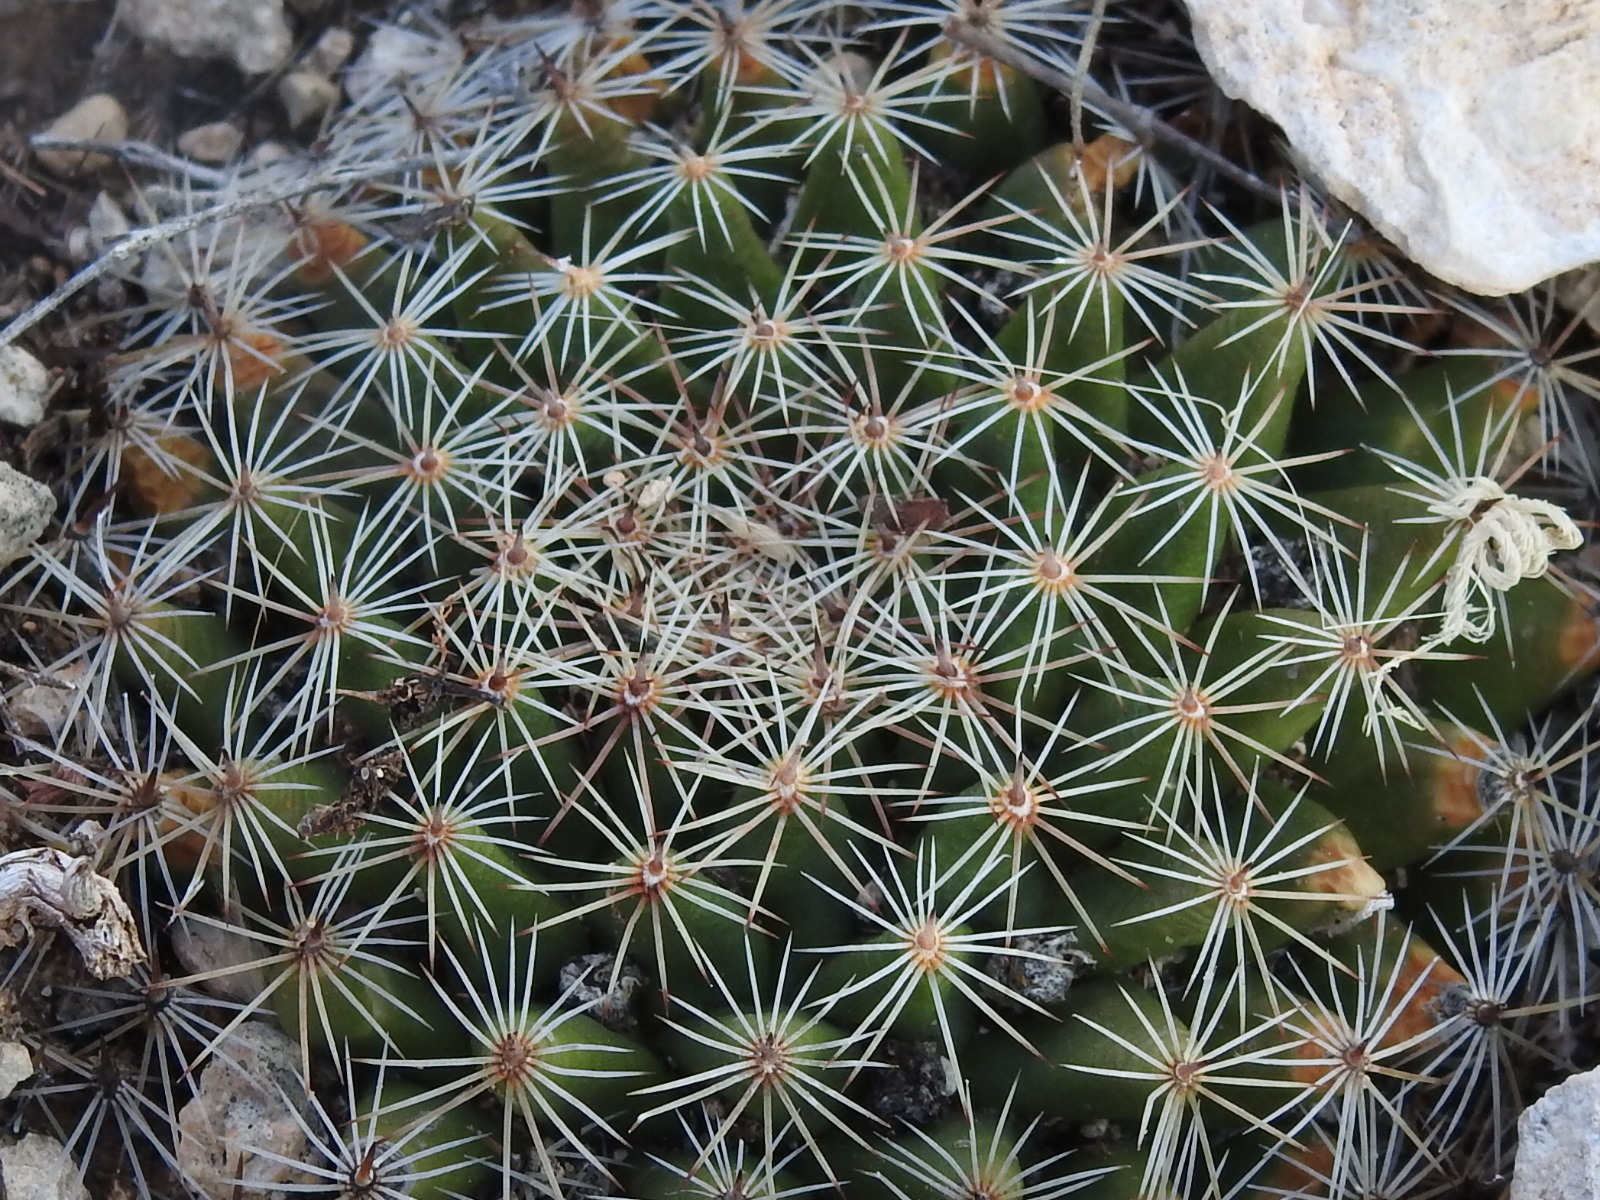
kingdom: Plantae
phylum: Tracheophyta
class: Magnoliopsida
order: Caryophyllales
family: Cactaceae
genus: Mammillaria
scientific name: Mammillaria heyderi
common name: Little nipple cactus
